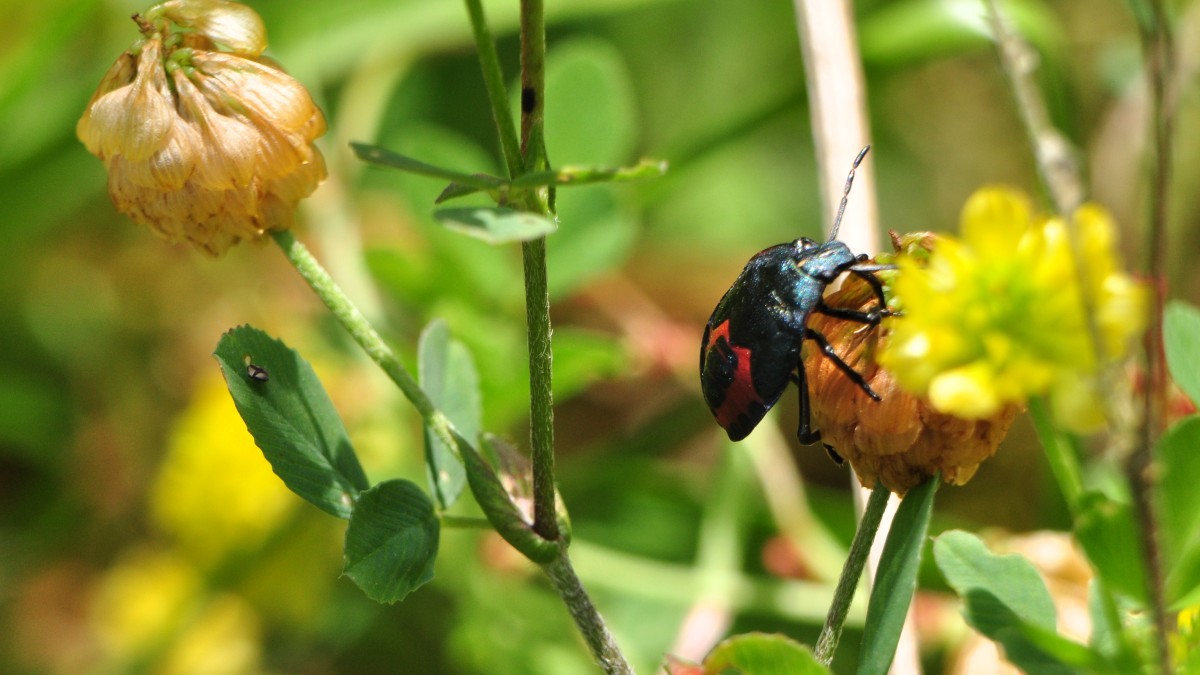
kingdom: Animalia
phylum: Arthropoda
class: Insecta
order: Hemiptera
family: Pentatomidae
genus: Jalla
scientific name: Jalla dumosa
